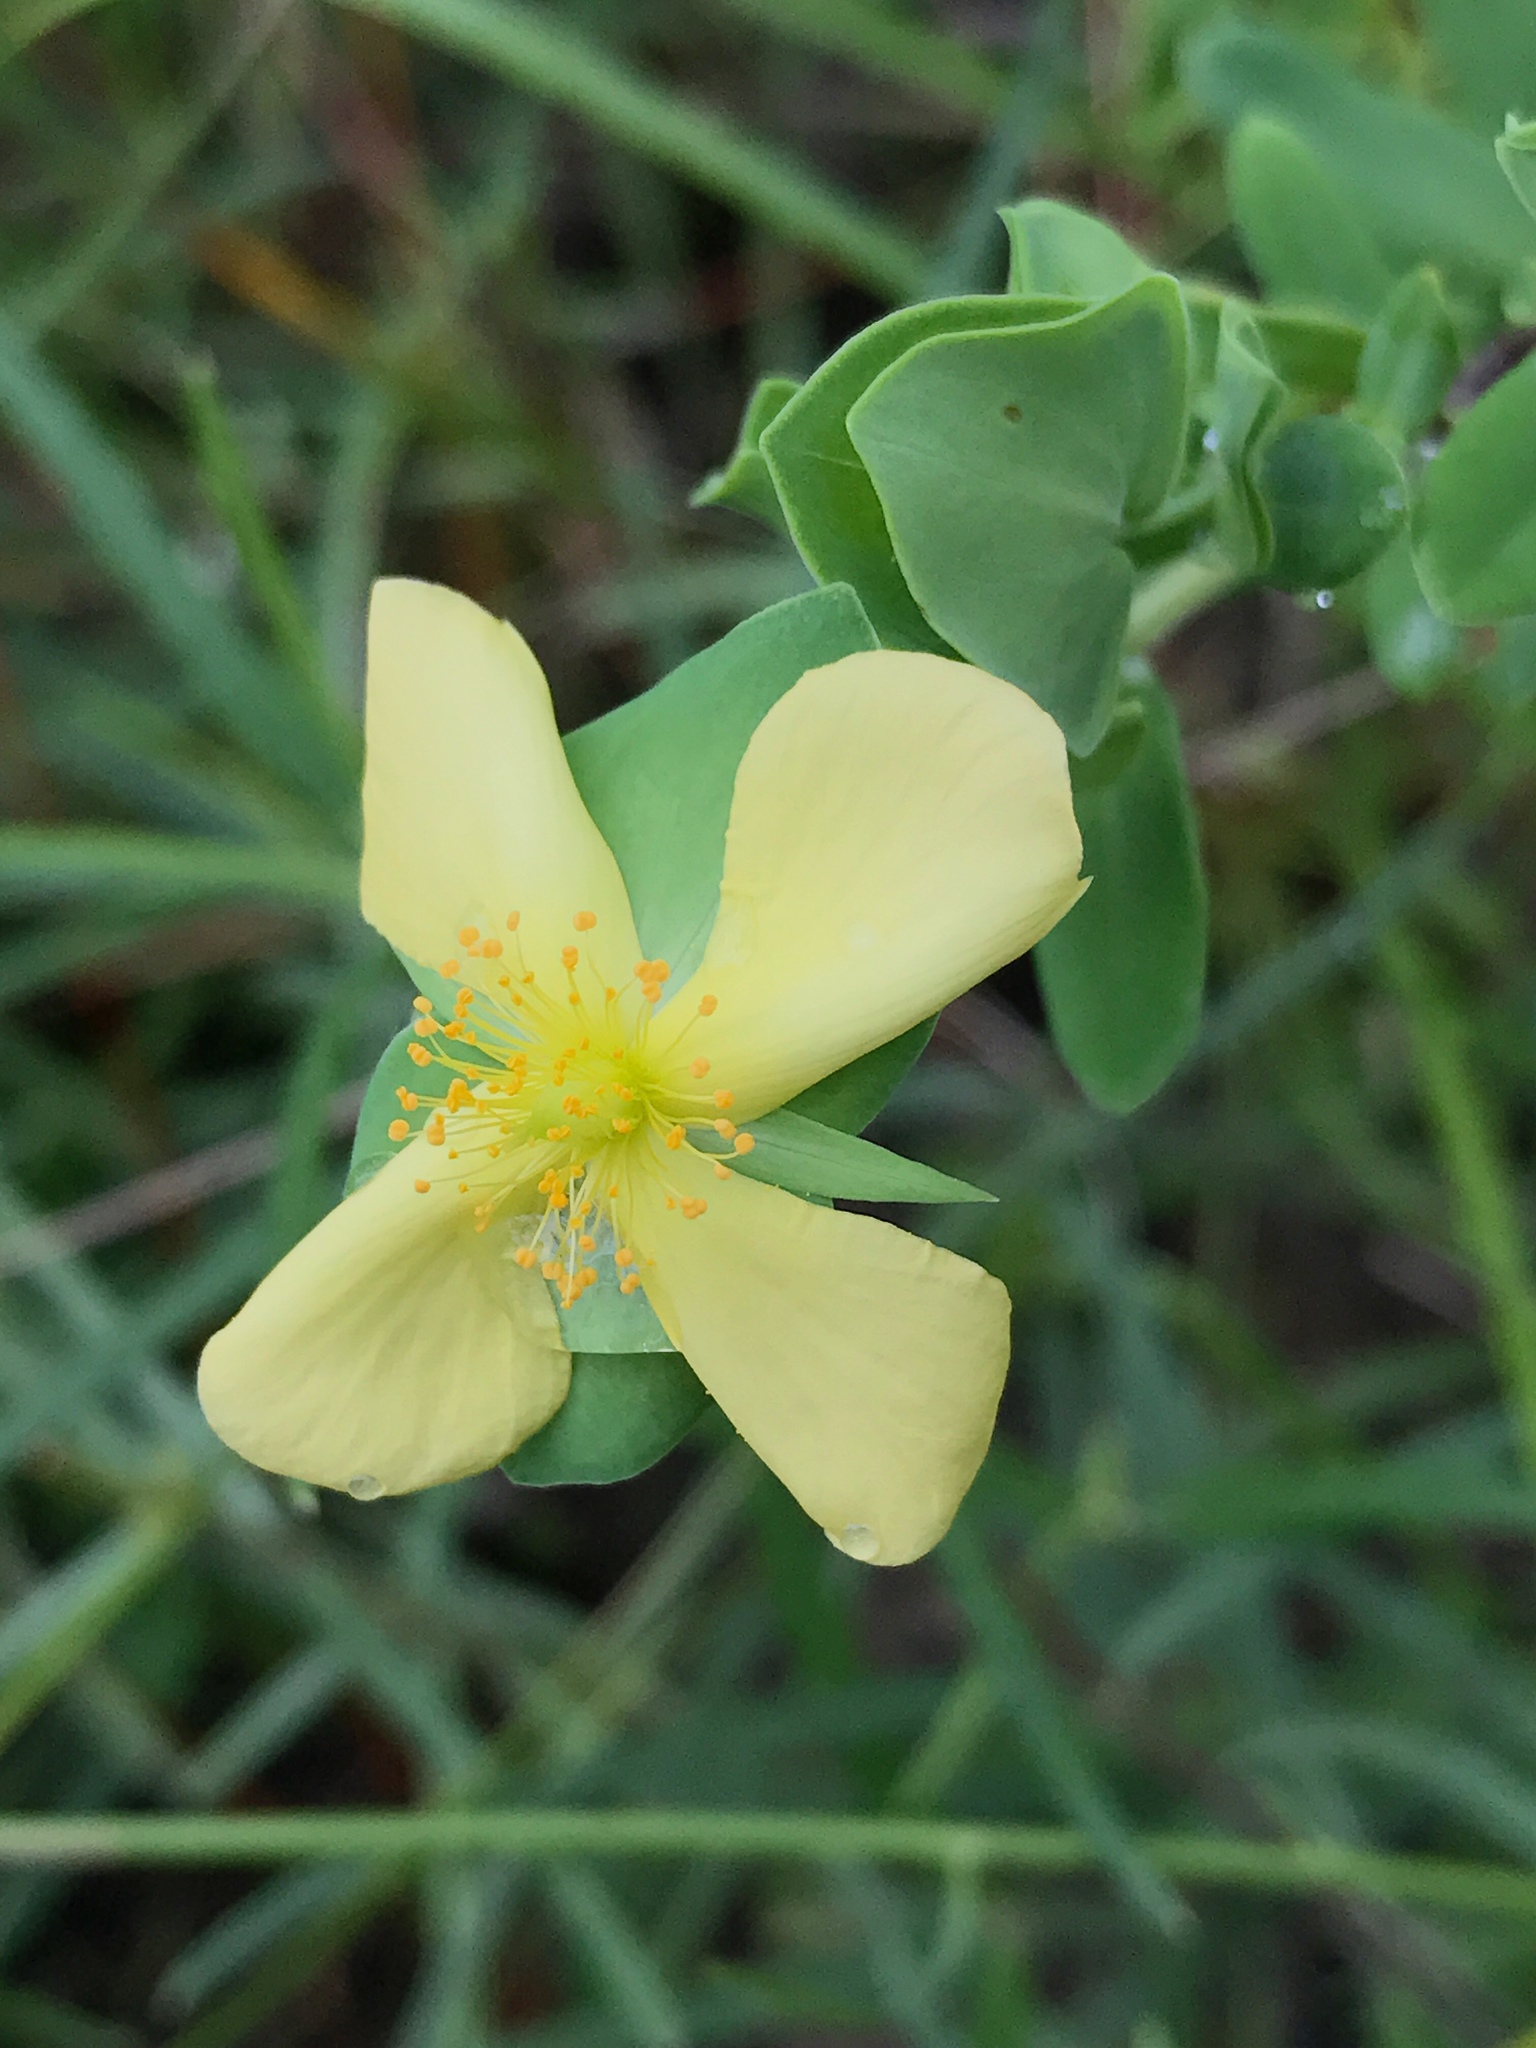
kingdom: Plantae
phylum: Tracheophyta
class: Magnoliopsida
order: Malpighiales
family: Hypericaceae
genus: Hypericum
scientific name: Hypericum crux-andreae
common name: St.-peter's-wort
